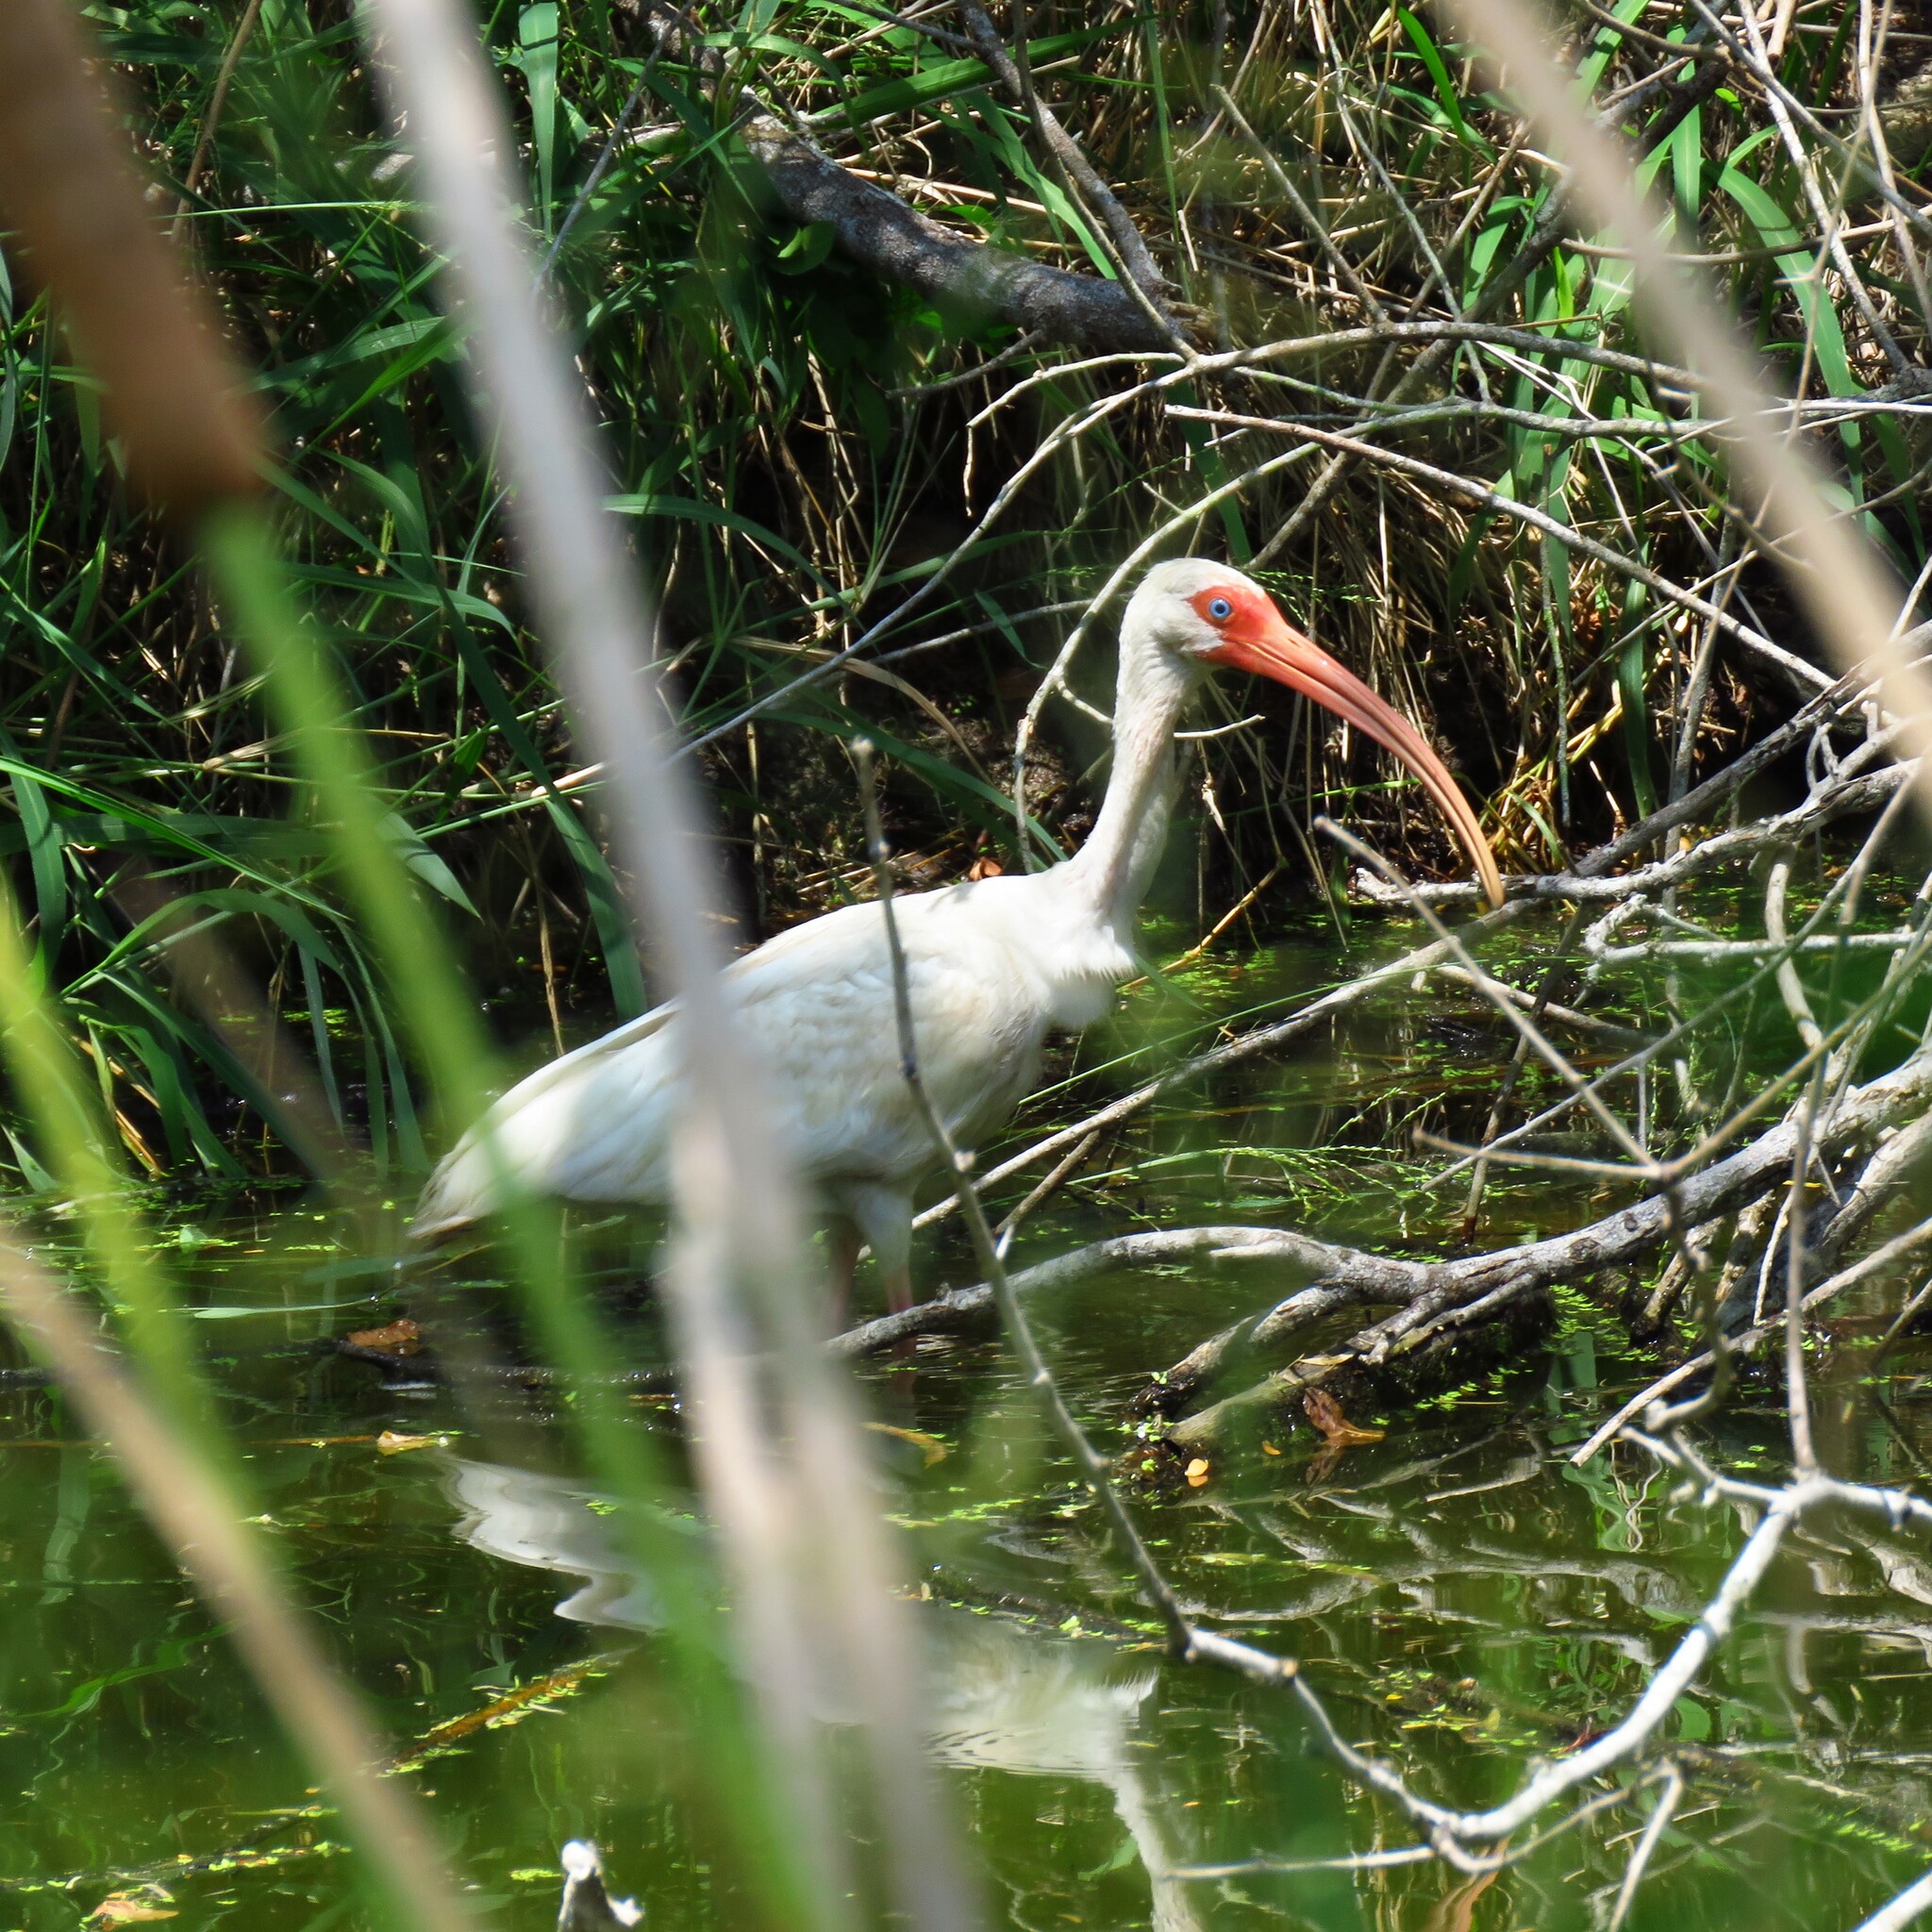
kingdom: Animalia
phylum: Chordata
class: Aves
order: Pelecaniformes
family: Threskiornithidae
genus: Eudocimus
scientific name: Eudocimus albus
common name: White ibis
